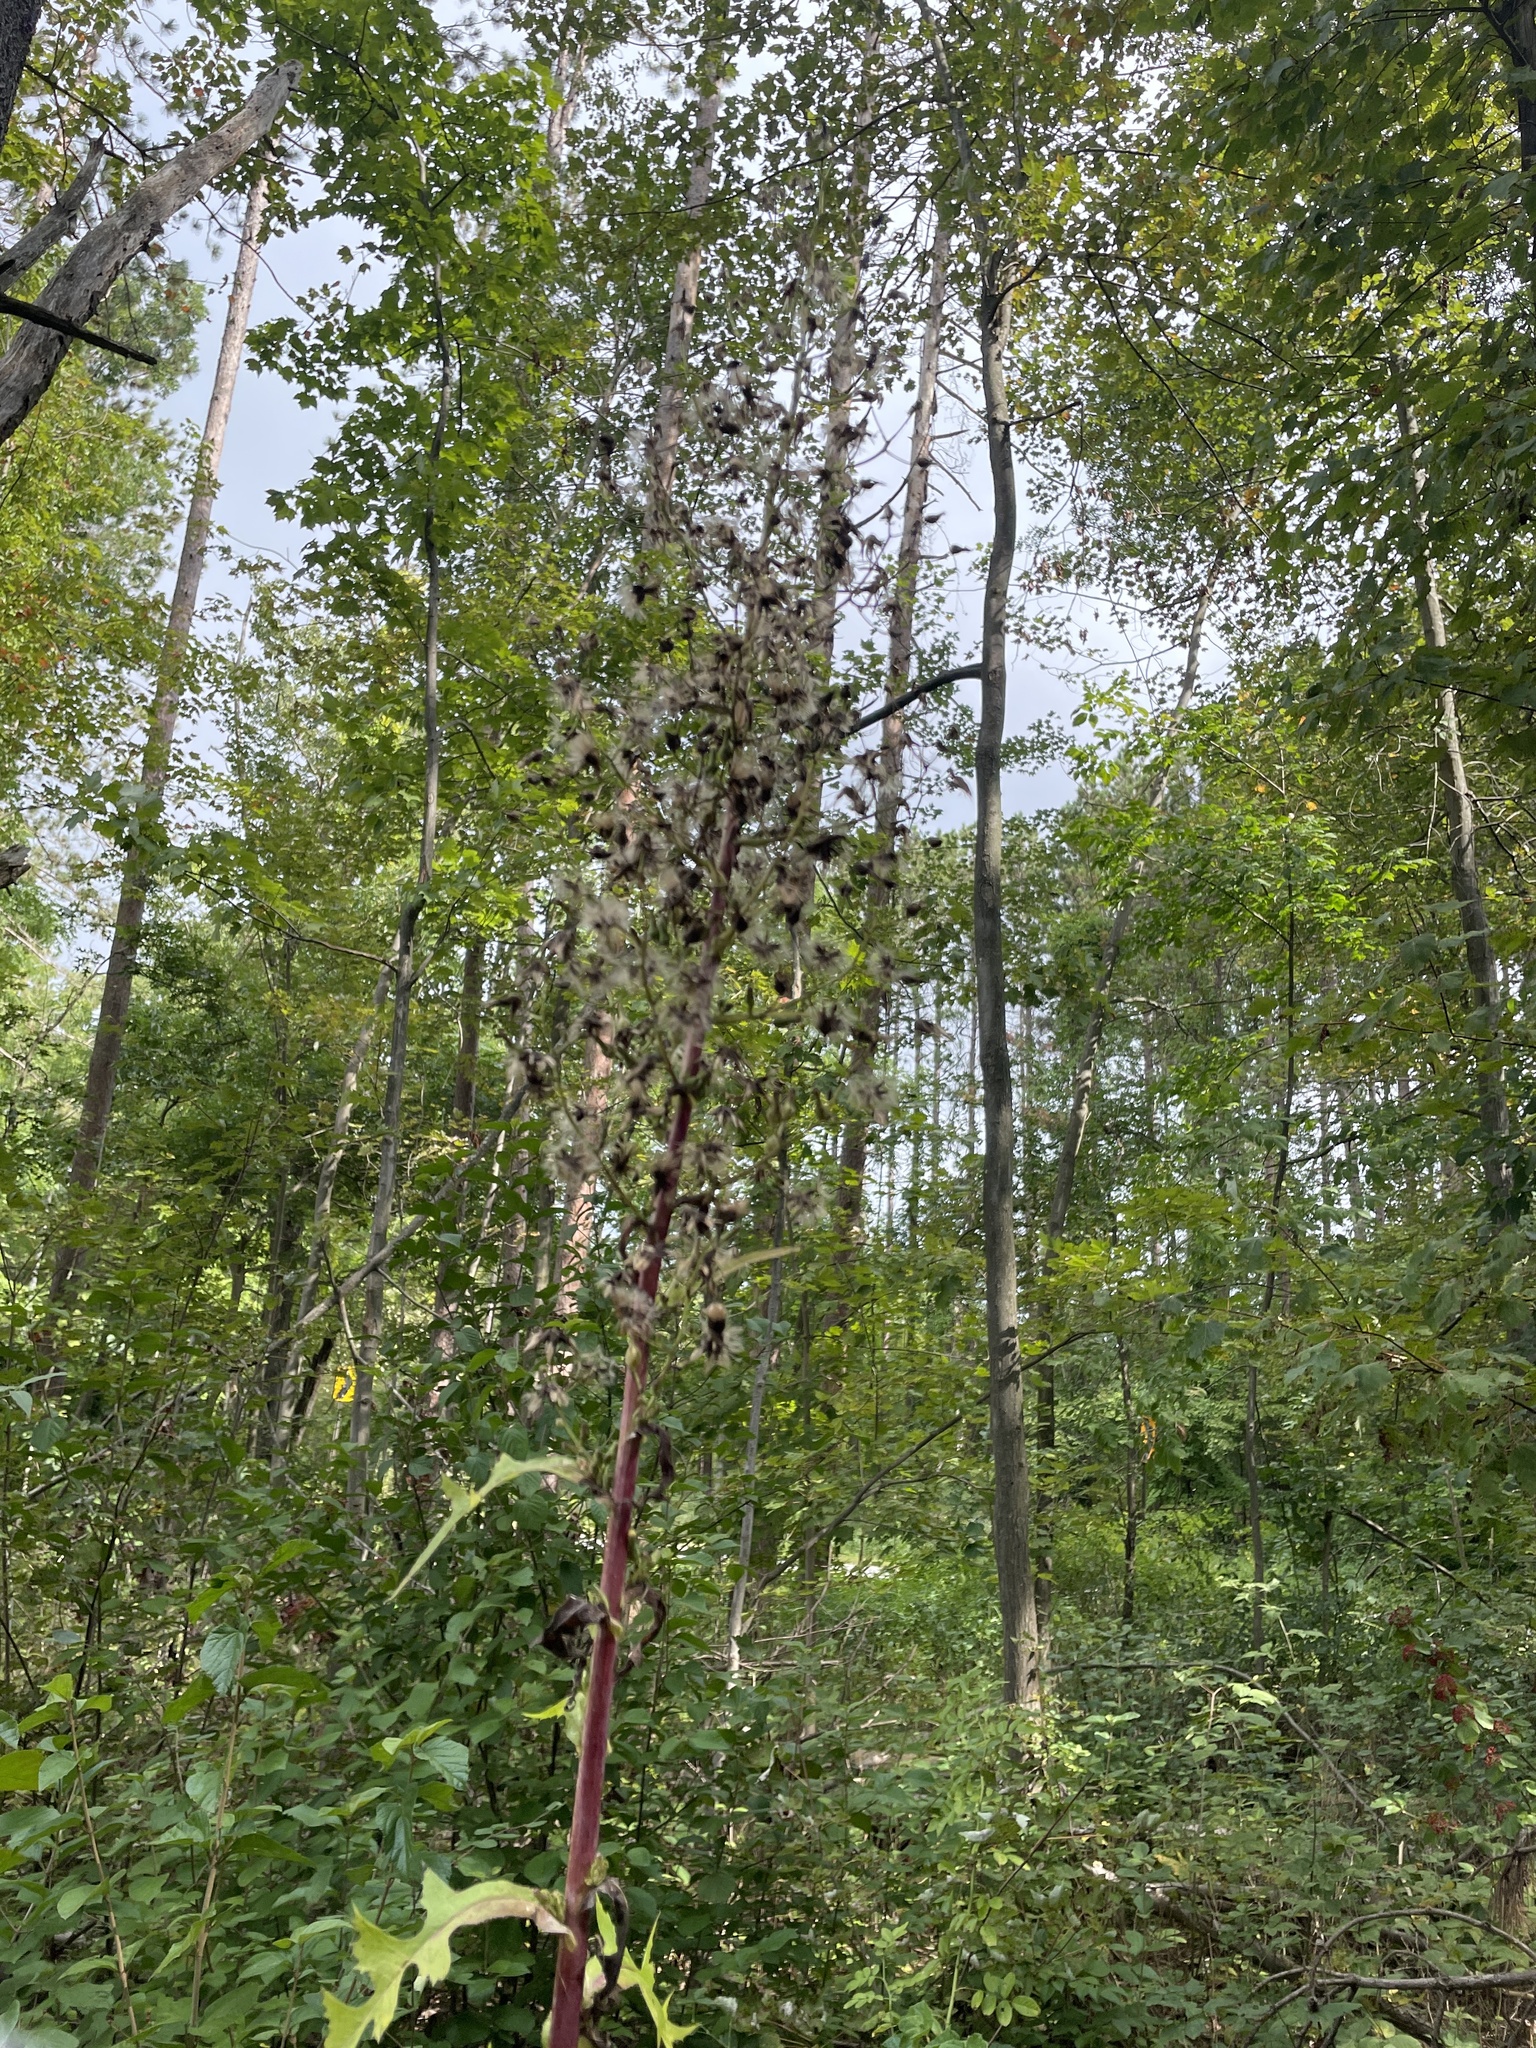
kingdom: Plantae
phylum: Tracheophyta
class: Magnoliopsida
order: Asterales
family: Asteraceae
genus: Lactuca
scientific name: Lactuca biennis
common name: Blue wood lettuce
